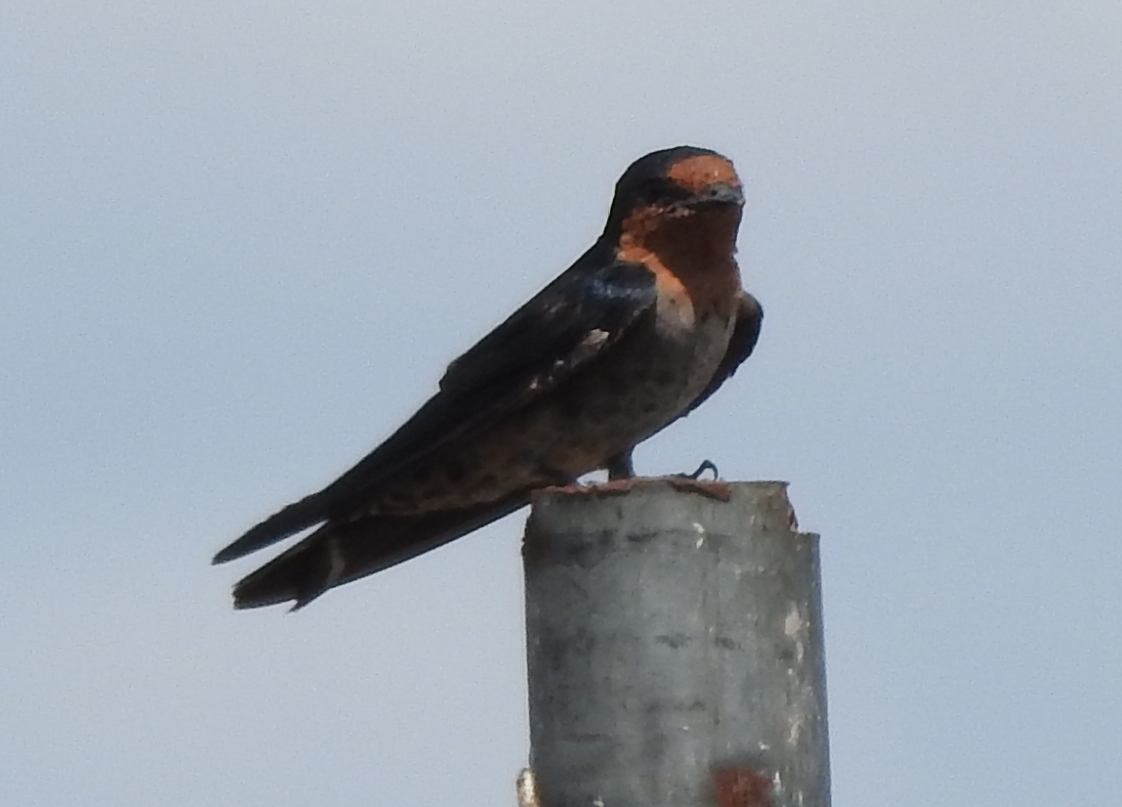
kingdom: Animalia
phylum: Chordata
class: Aves
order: Passeriformes
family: Hirundinidae
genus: Hirundo
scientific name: Hirundo tahitica
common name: Pacific swallow
